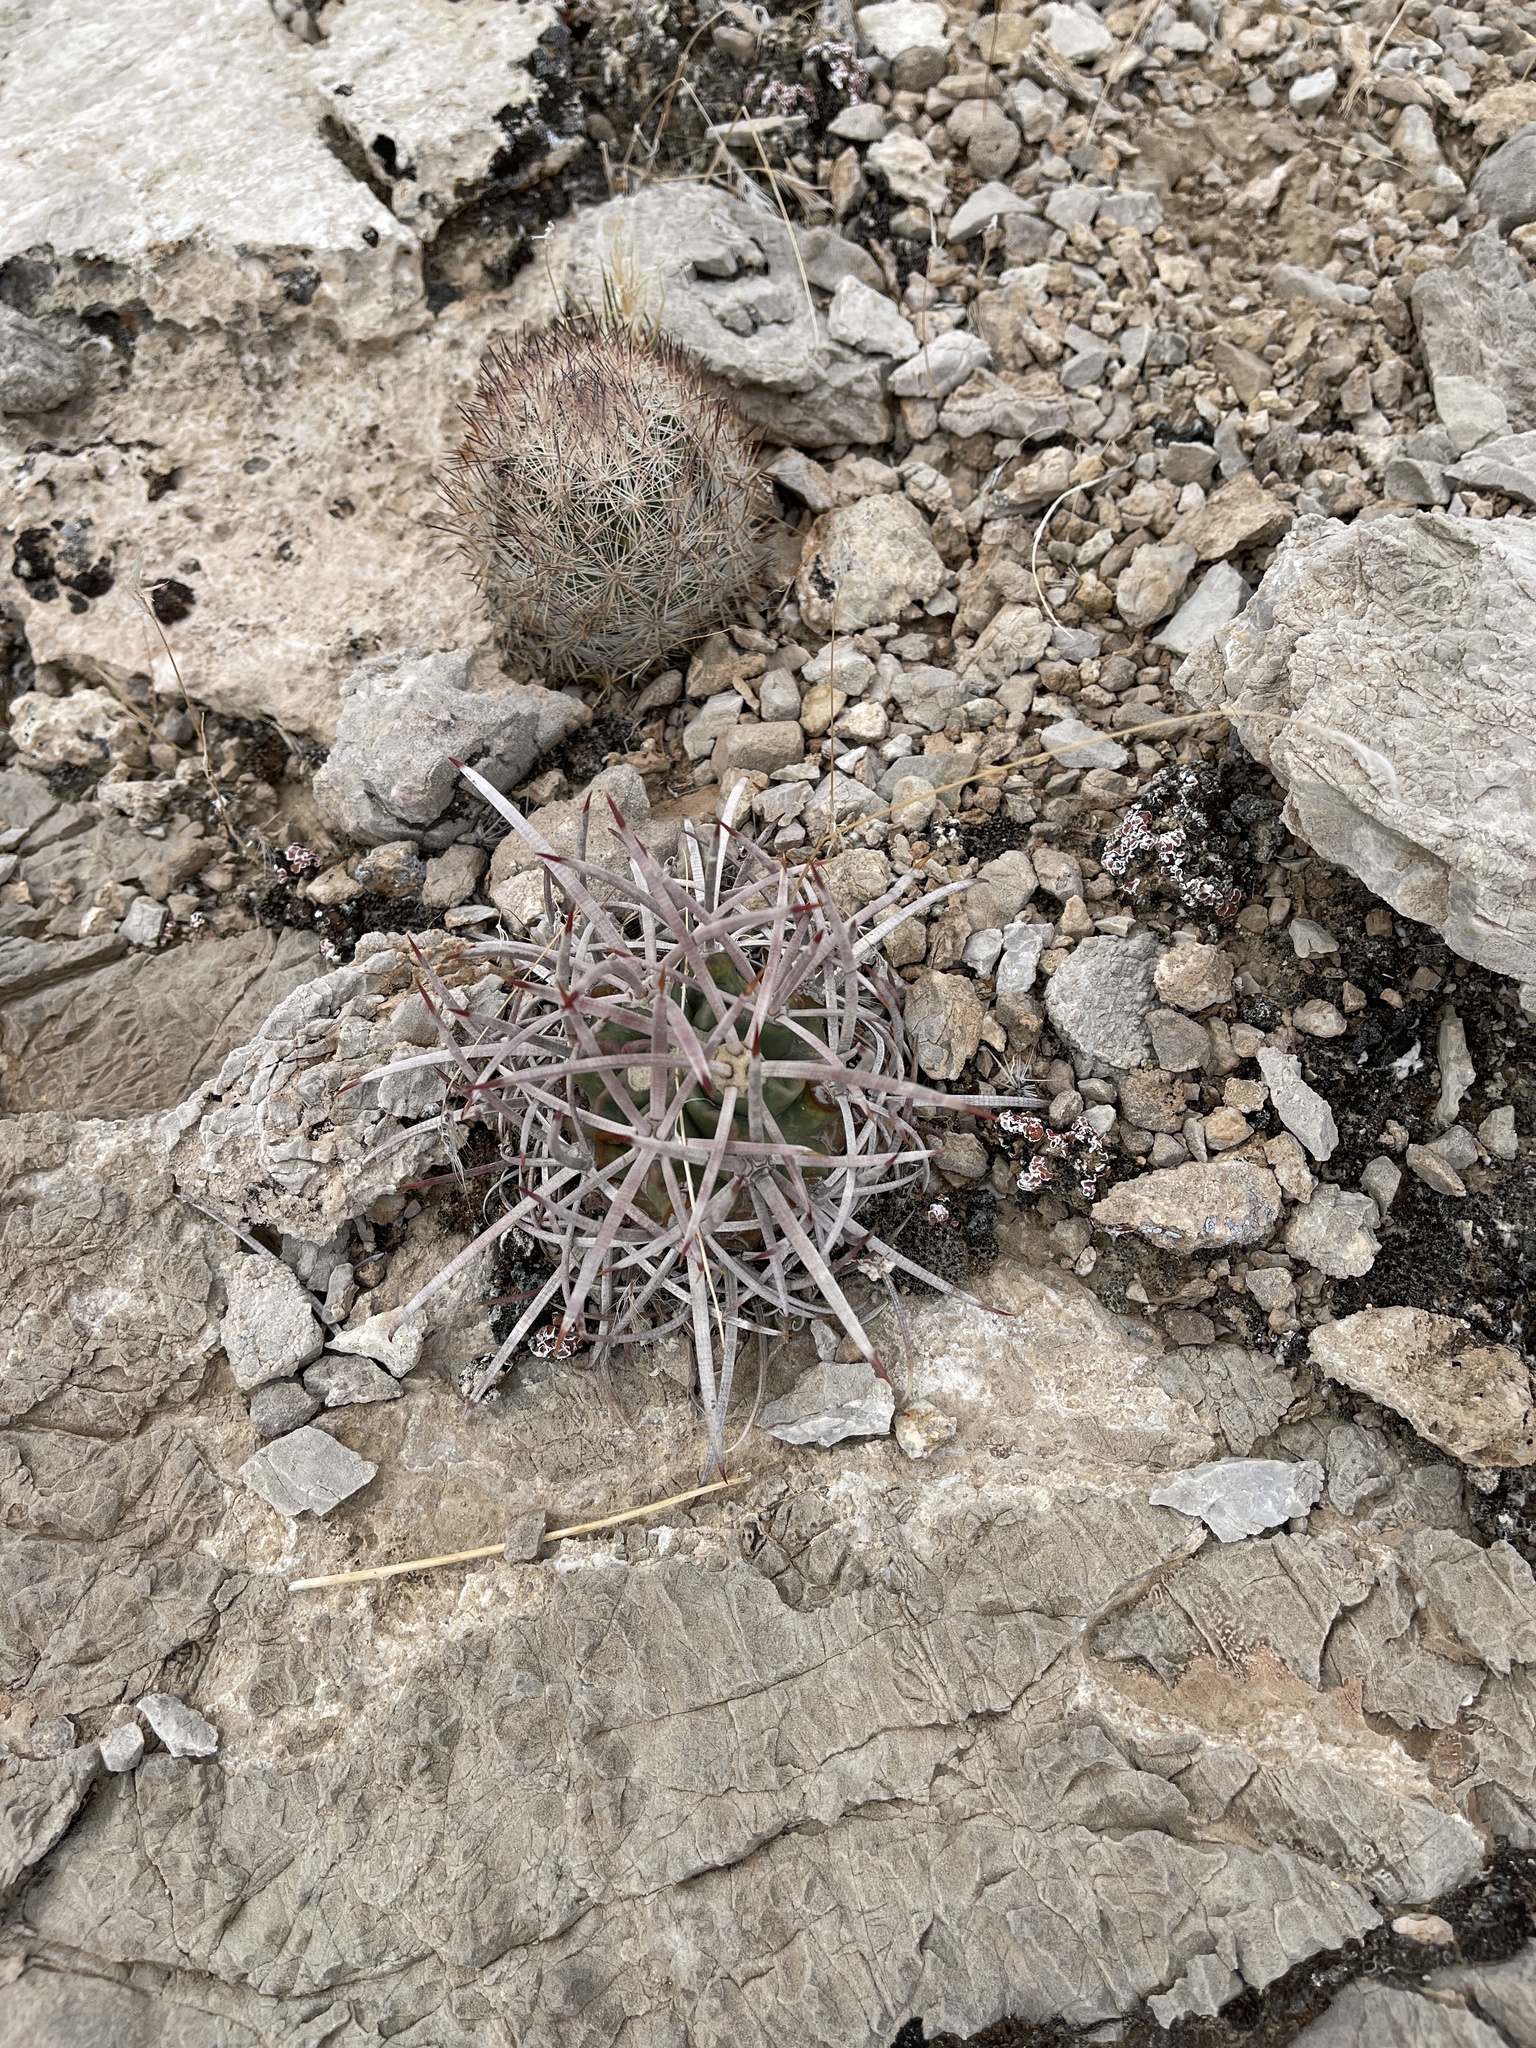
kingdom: Plantae
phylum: Tracheophyta
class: Magnoliopsida
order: Caryophyllales
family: Cactaceae
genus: Echinocactus
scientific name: Echinocactus polycephalus
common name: Cottontop cactus
